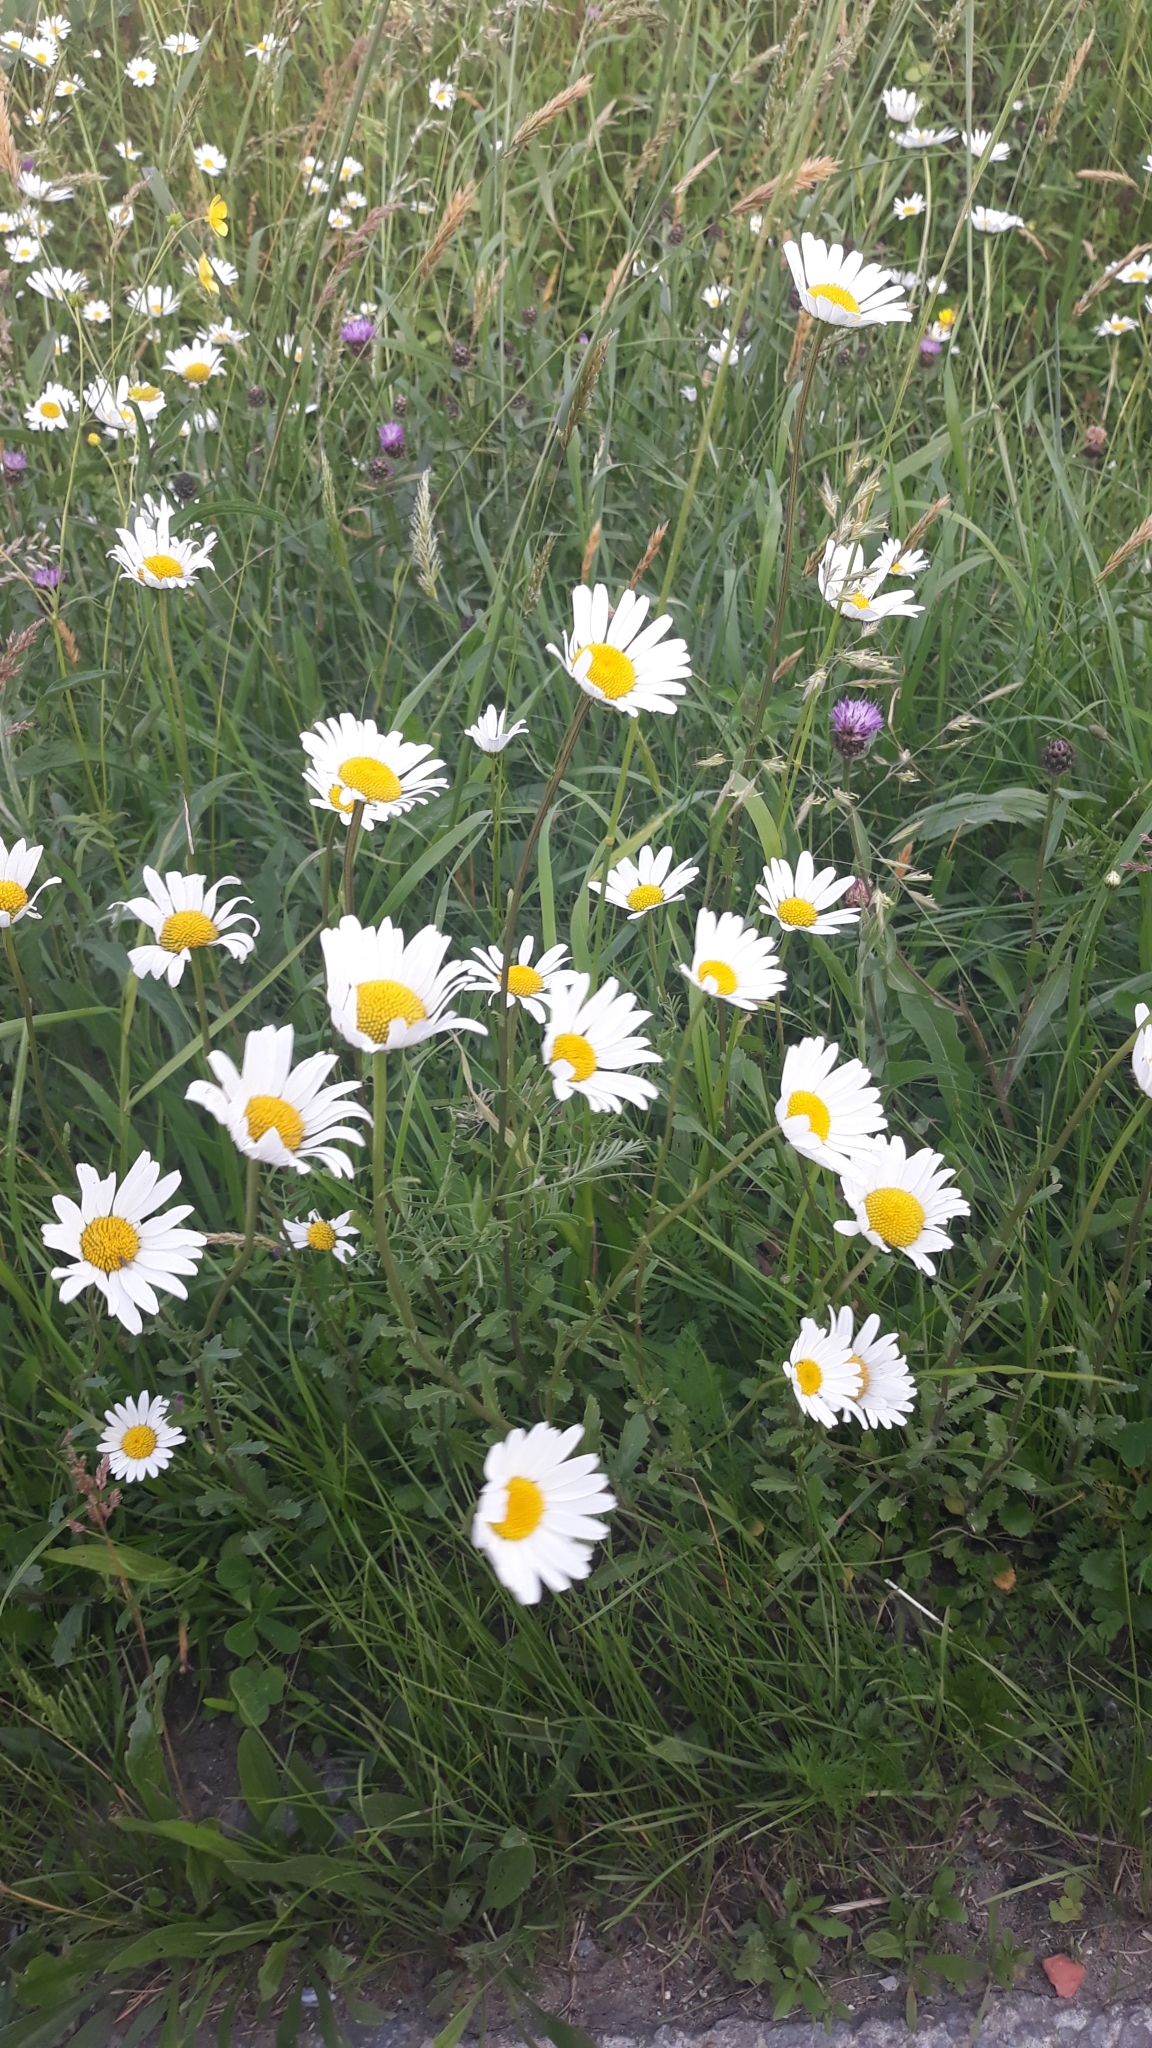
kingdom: Plantae
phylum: Tracheophyta
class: Magnoliopsida
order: Asterales
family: Asteraceae
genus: Leucanthemum
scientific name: Leucanthemum vulgare
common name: Oxeye daisy
